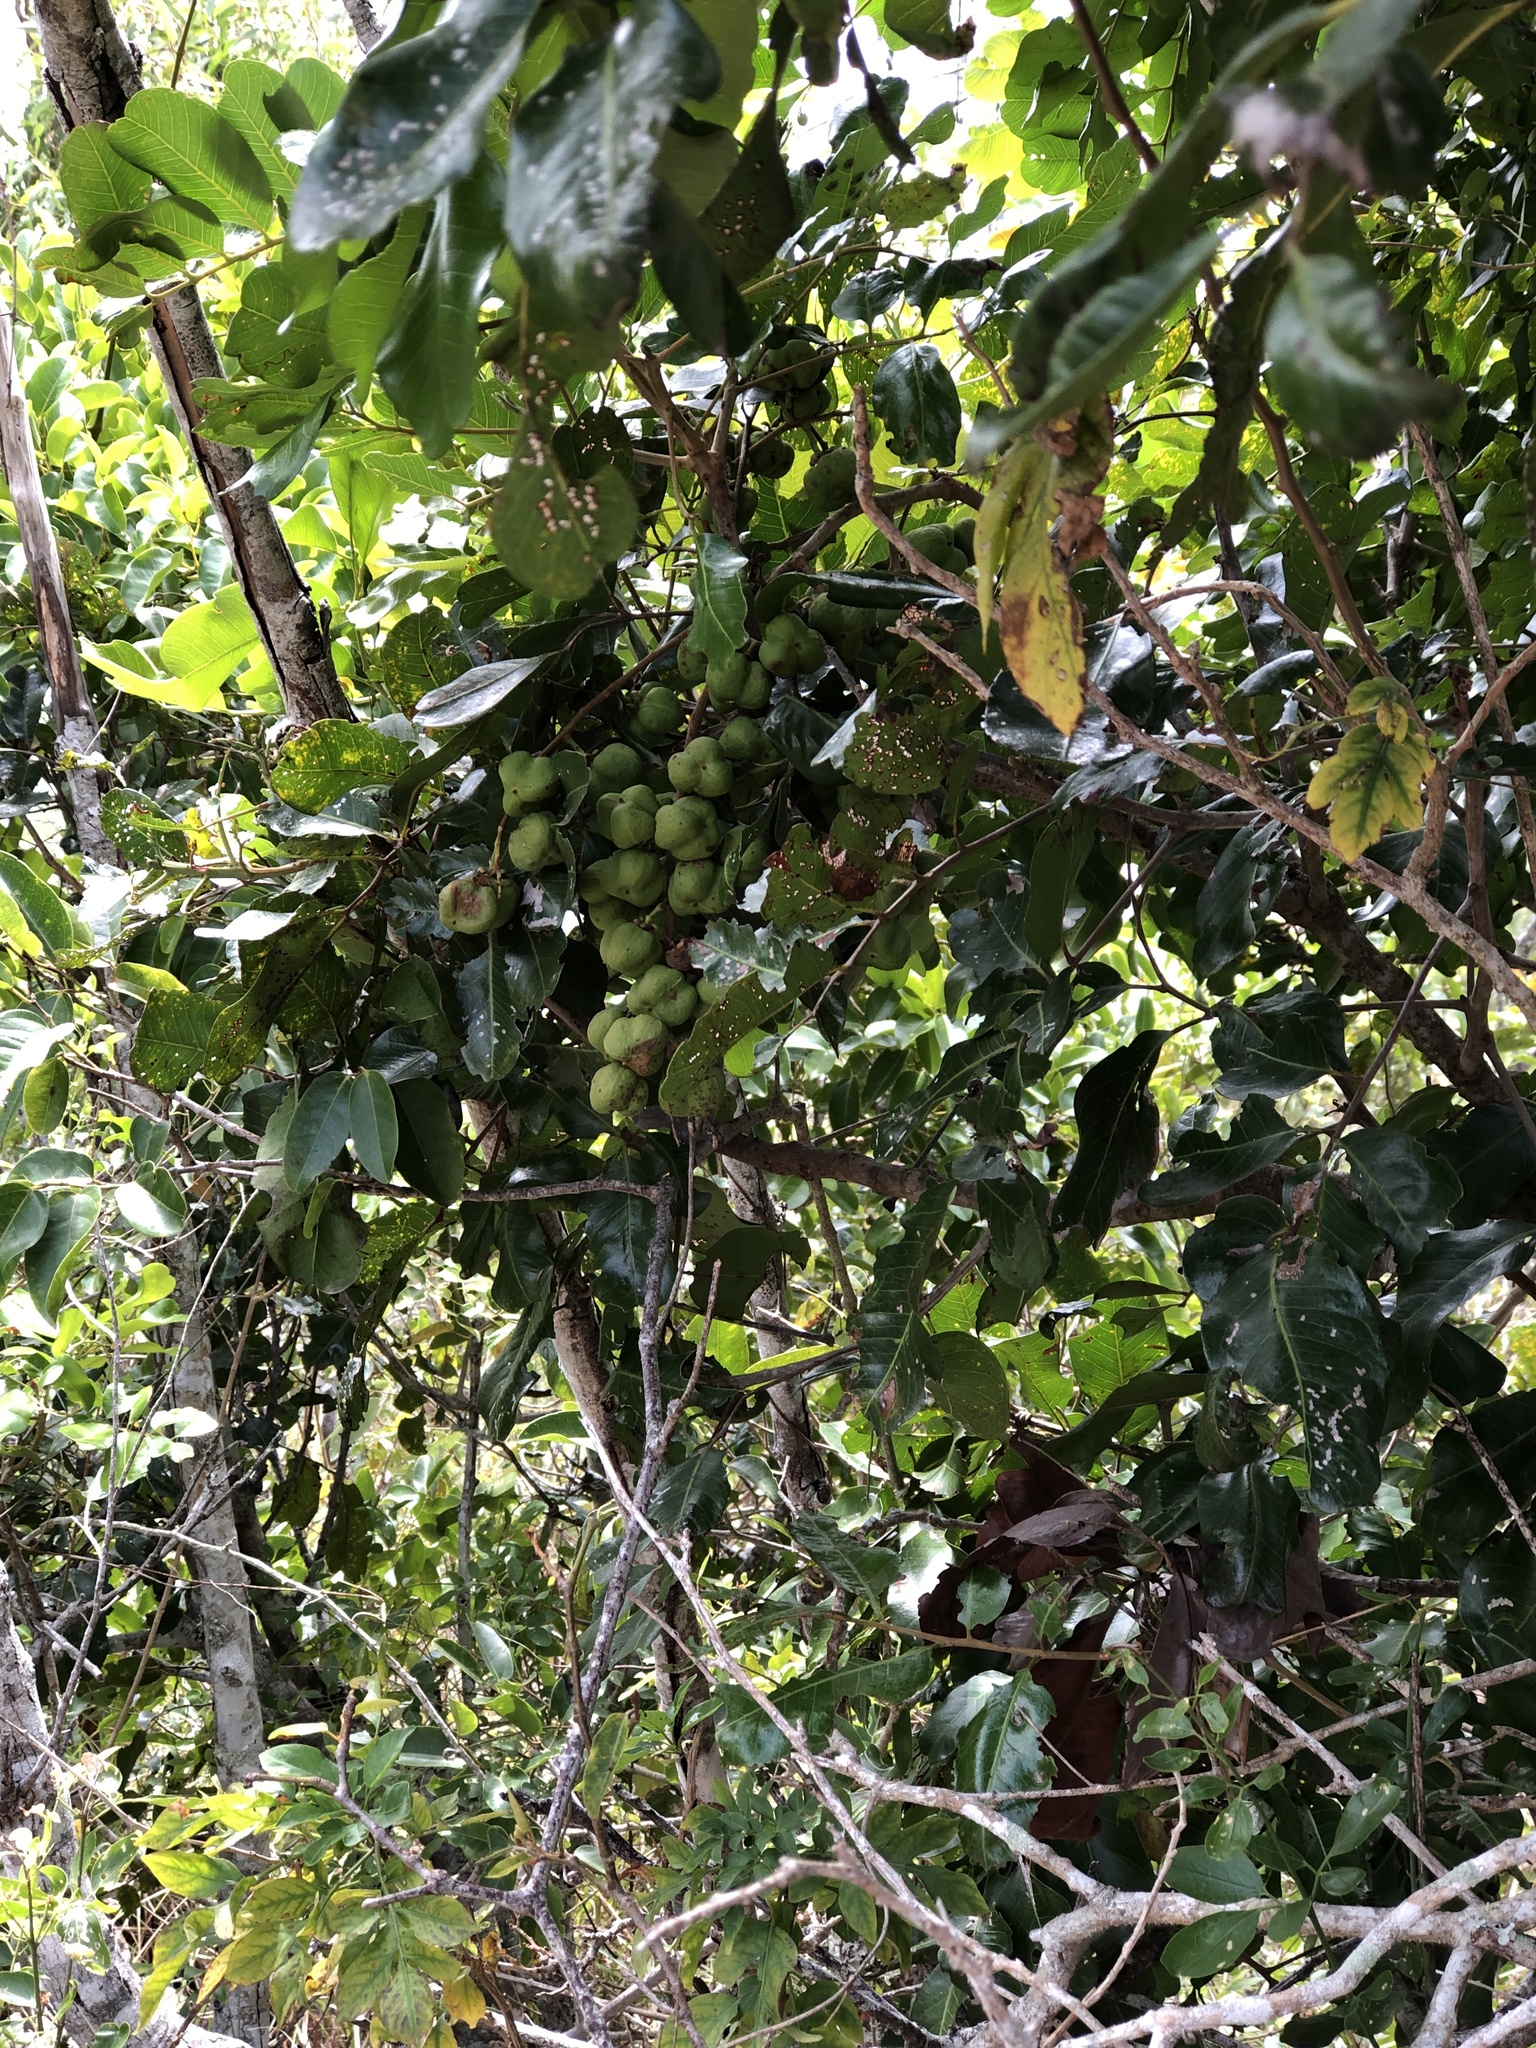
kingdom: Plantae
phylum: Tracheophyta
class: Magnoliopsida
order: Sapindales
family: Sapindaceae
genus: Cupaniopsis
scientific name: Cupaniopsis anacardioides
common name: Carrotwood
